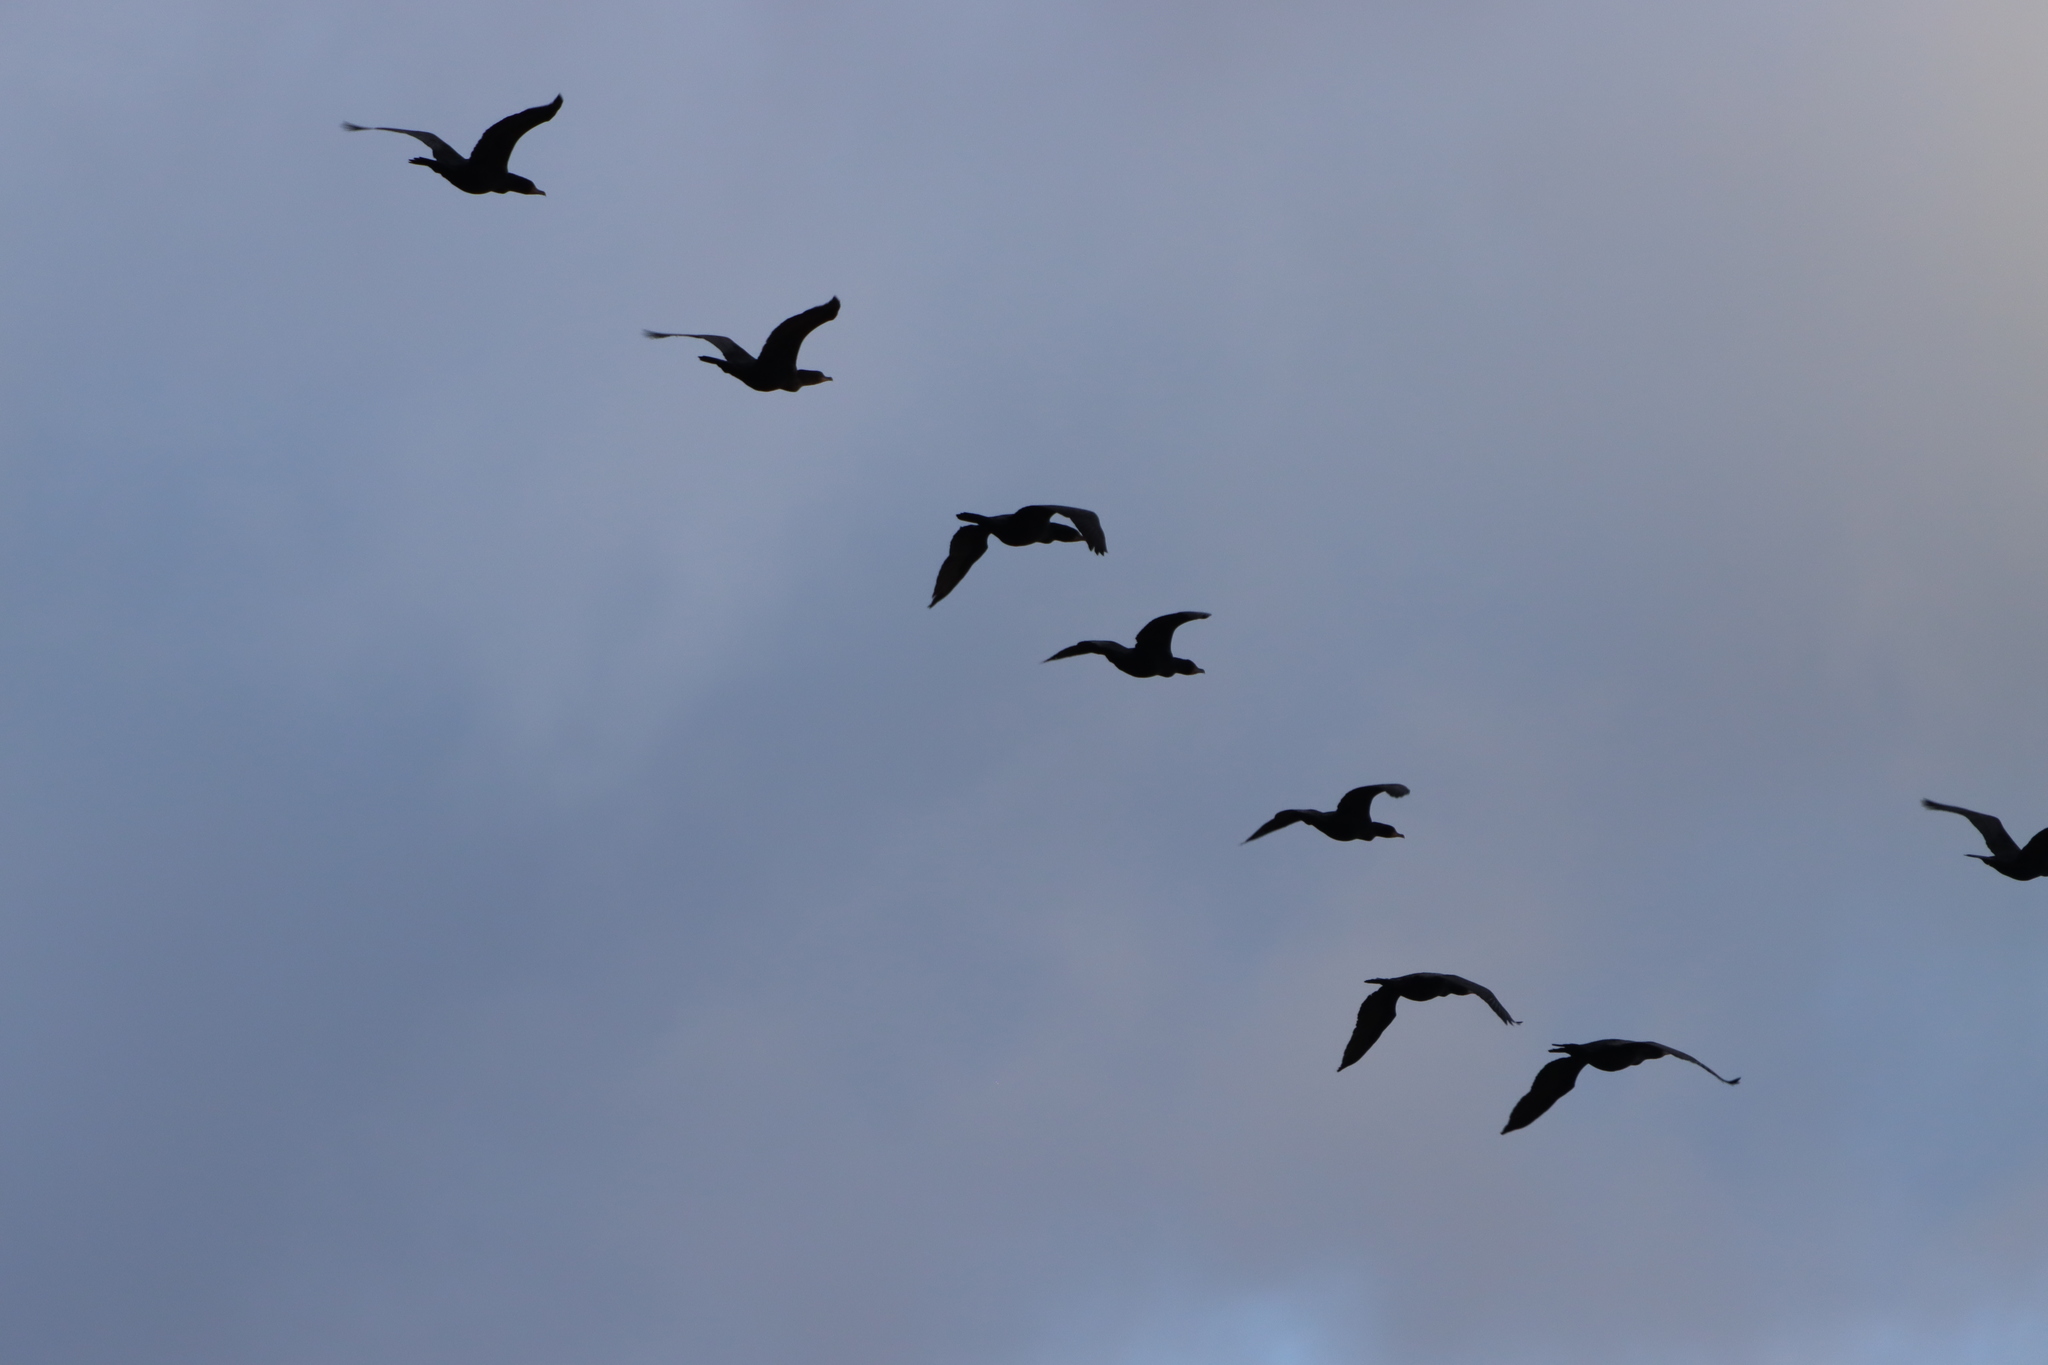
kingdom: Animalia
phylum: Chordata
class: Aves
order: Suliformes
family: Phalacrocoracidae
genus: Phalacrocorax
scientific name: Phalacrocorax auritus
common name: Double-crested cormorant
